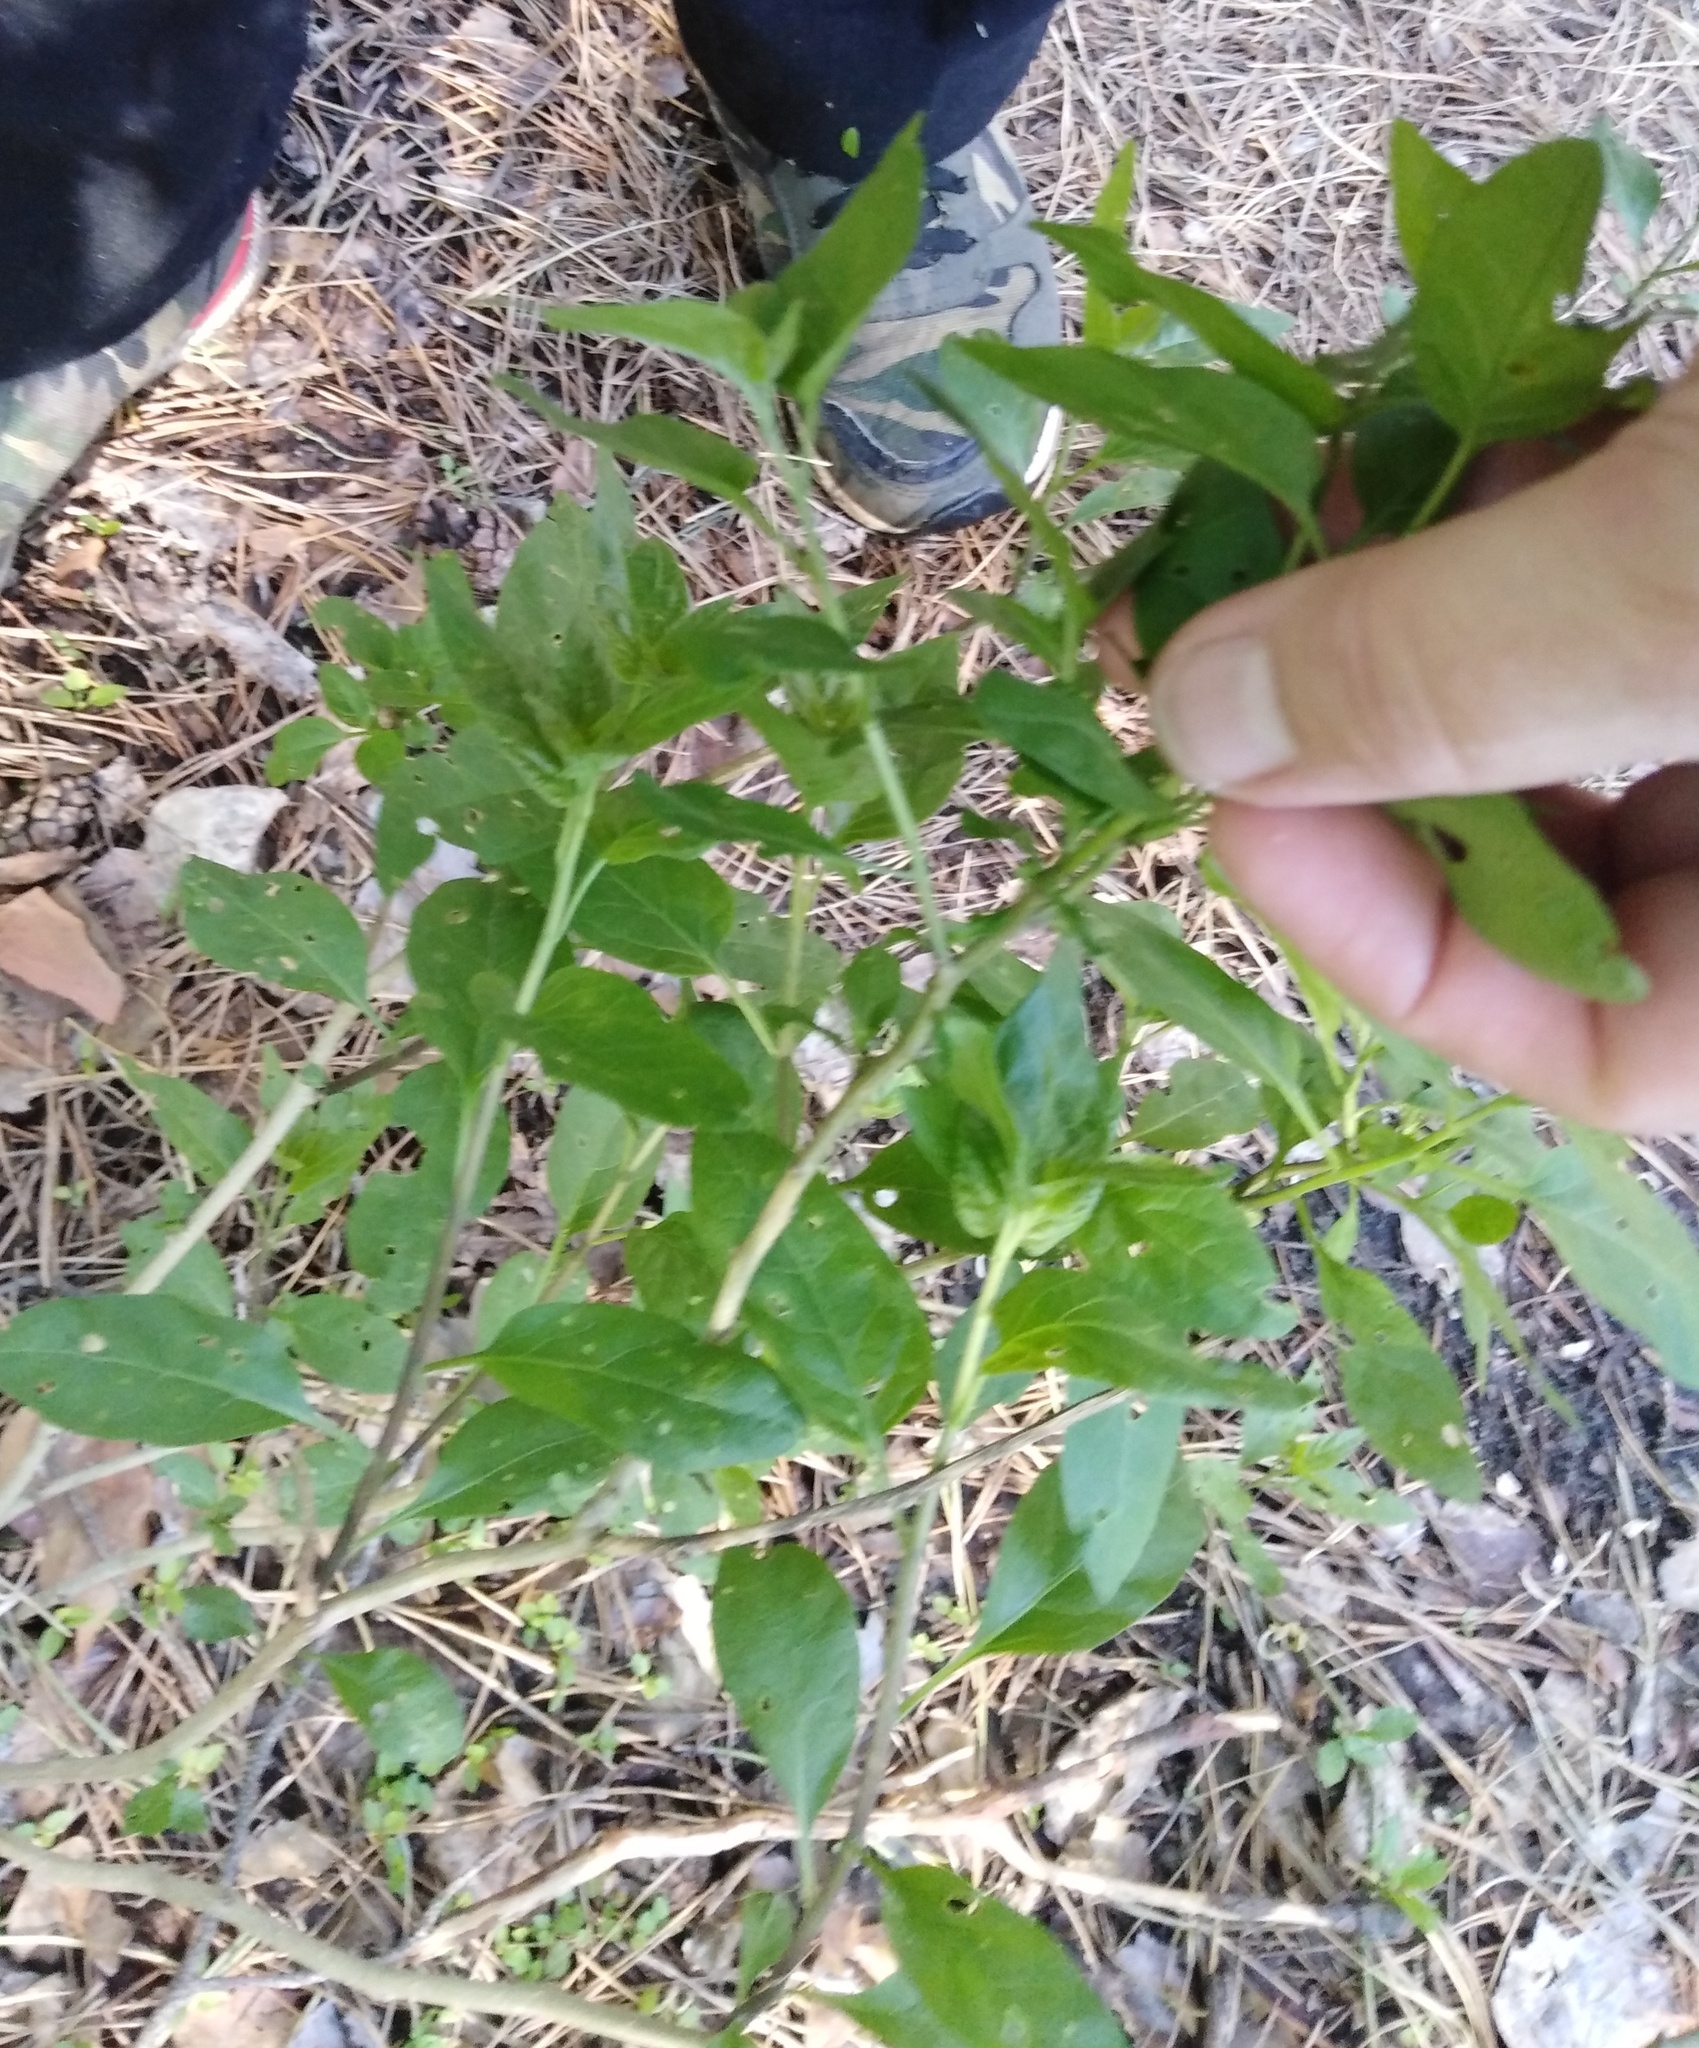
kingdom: Plantae
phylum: Tracheophyta
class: Magnoliopsida
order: Solanales
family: Solanaceae
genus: Solanum
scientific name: Solanum dulcamara
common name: Climbing nightshade
